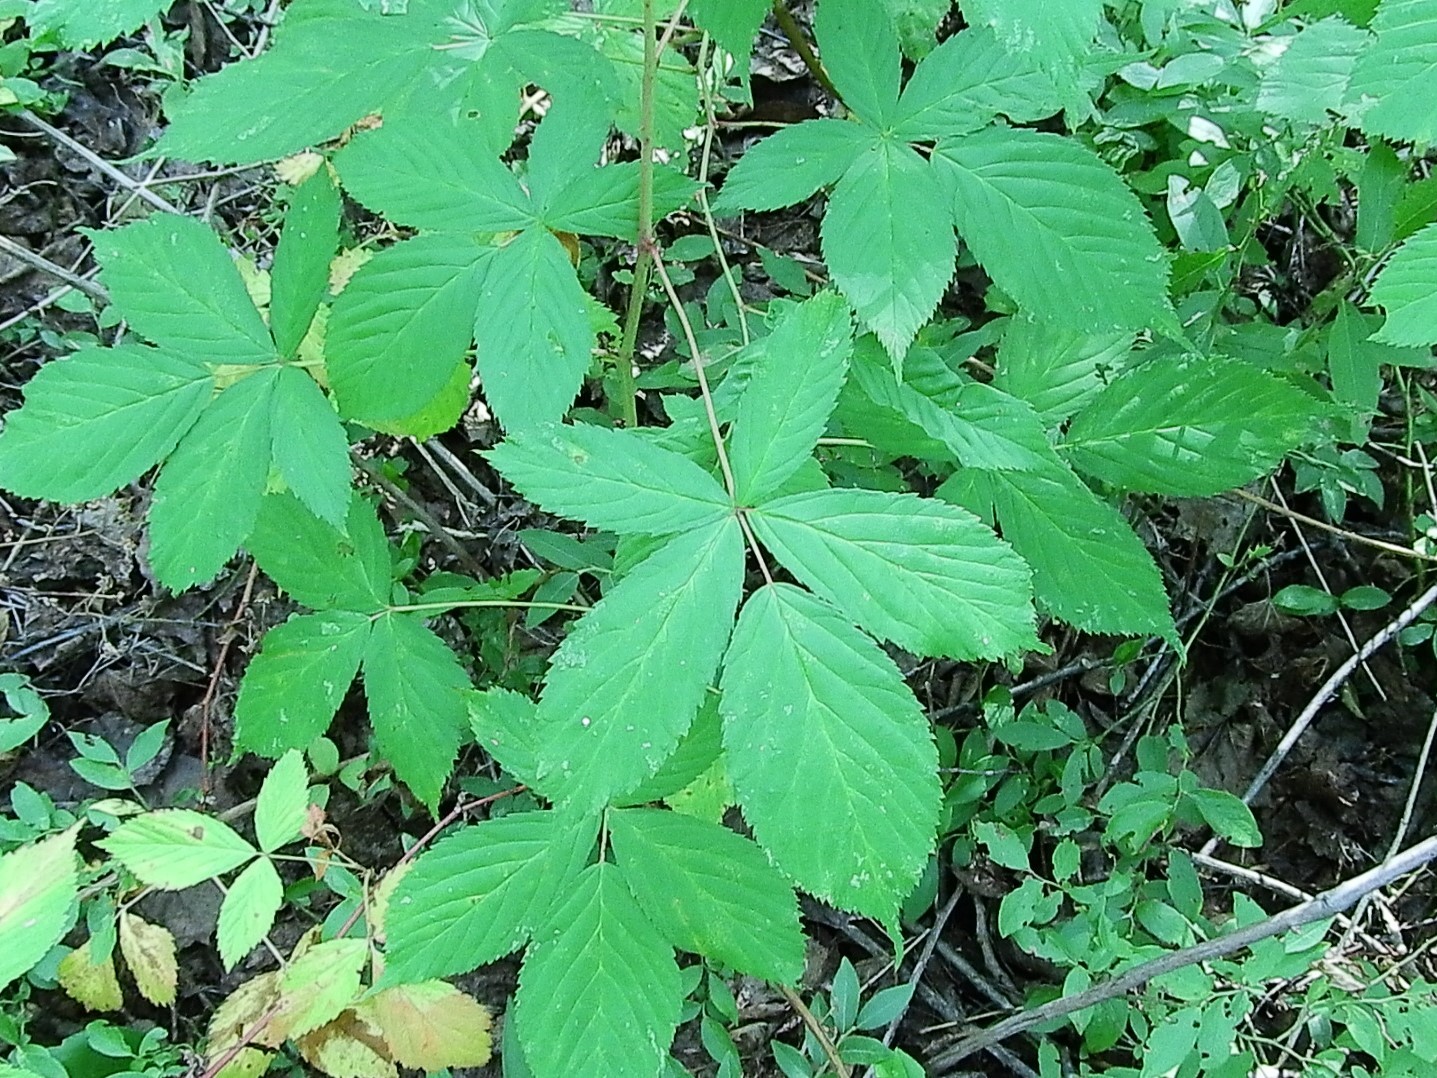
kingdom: Plantae
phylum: Tracheophyta
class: Magnoliopsida
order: Rosales
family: Rosaceae
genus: Rubus
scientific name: Rubus canadensis
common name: Smooth blackberry
